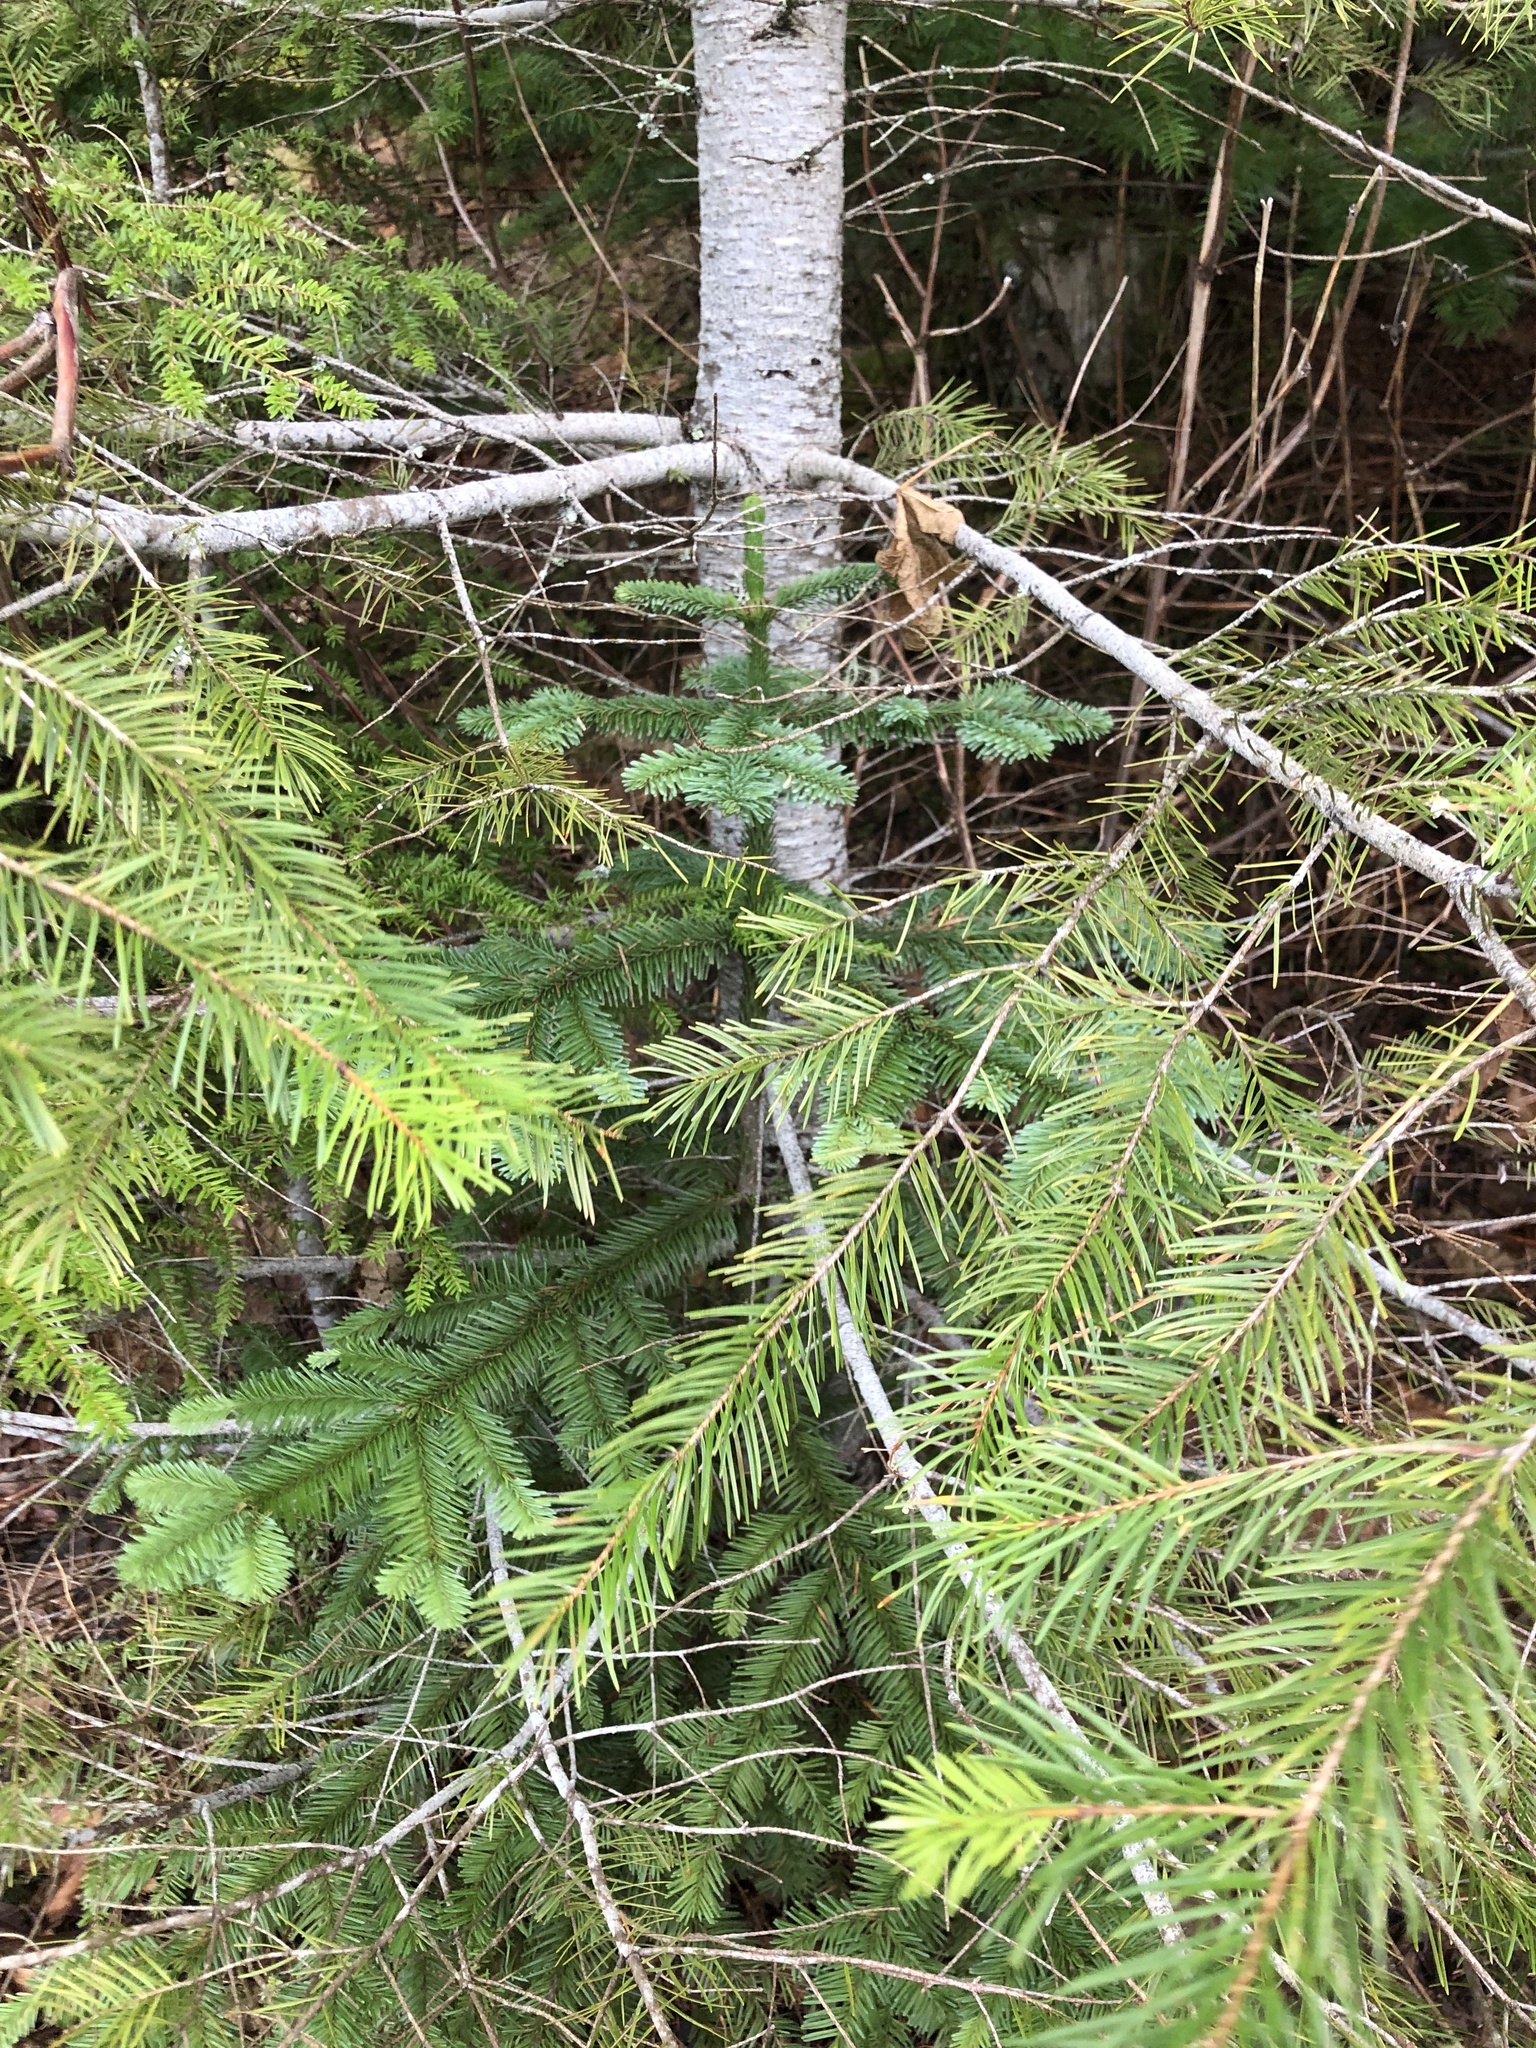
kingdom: Plantae
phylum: Tracheophyta
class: Pinopsida
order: Pinales
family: Pinaceae
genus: Abies
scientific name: Abies procera
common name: Noble fir
